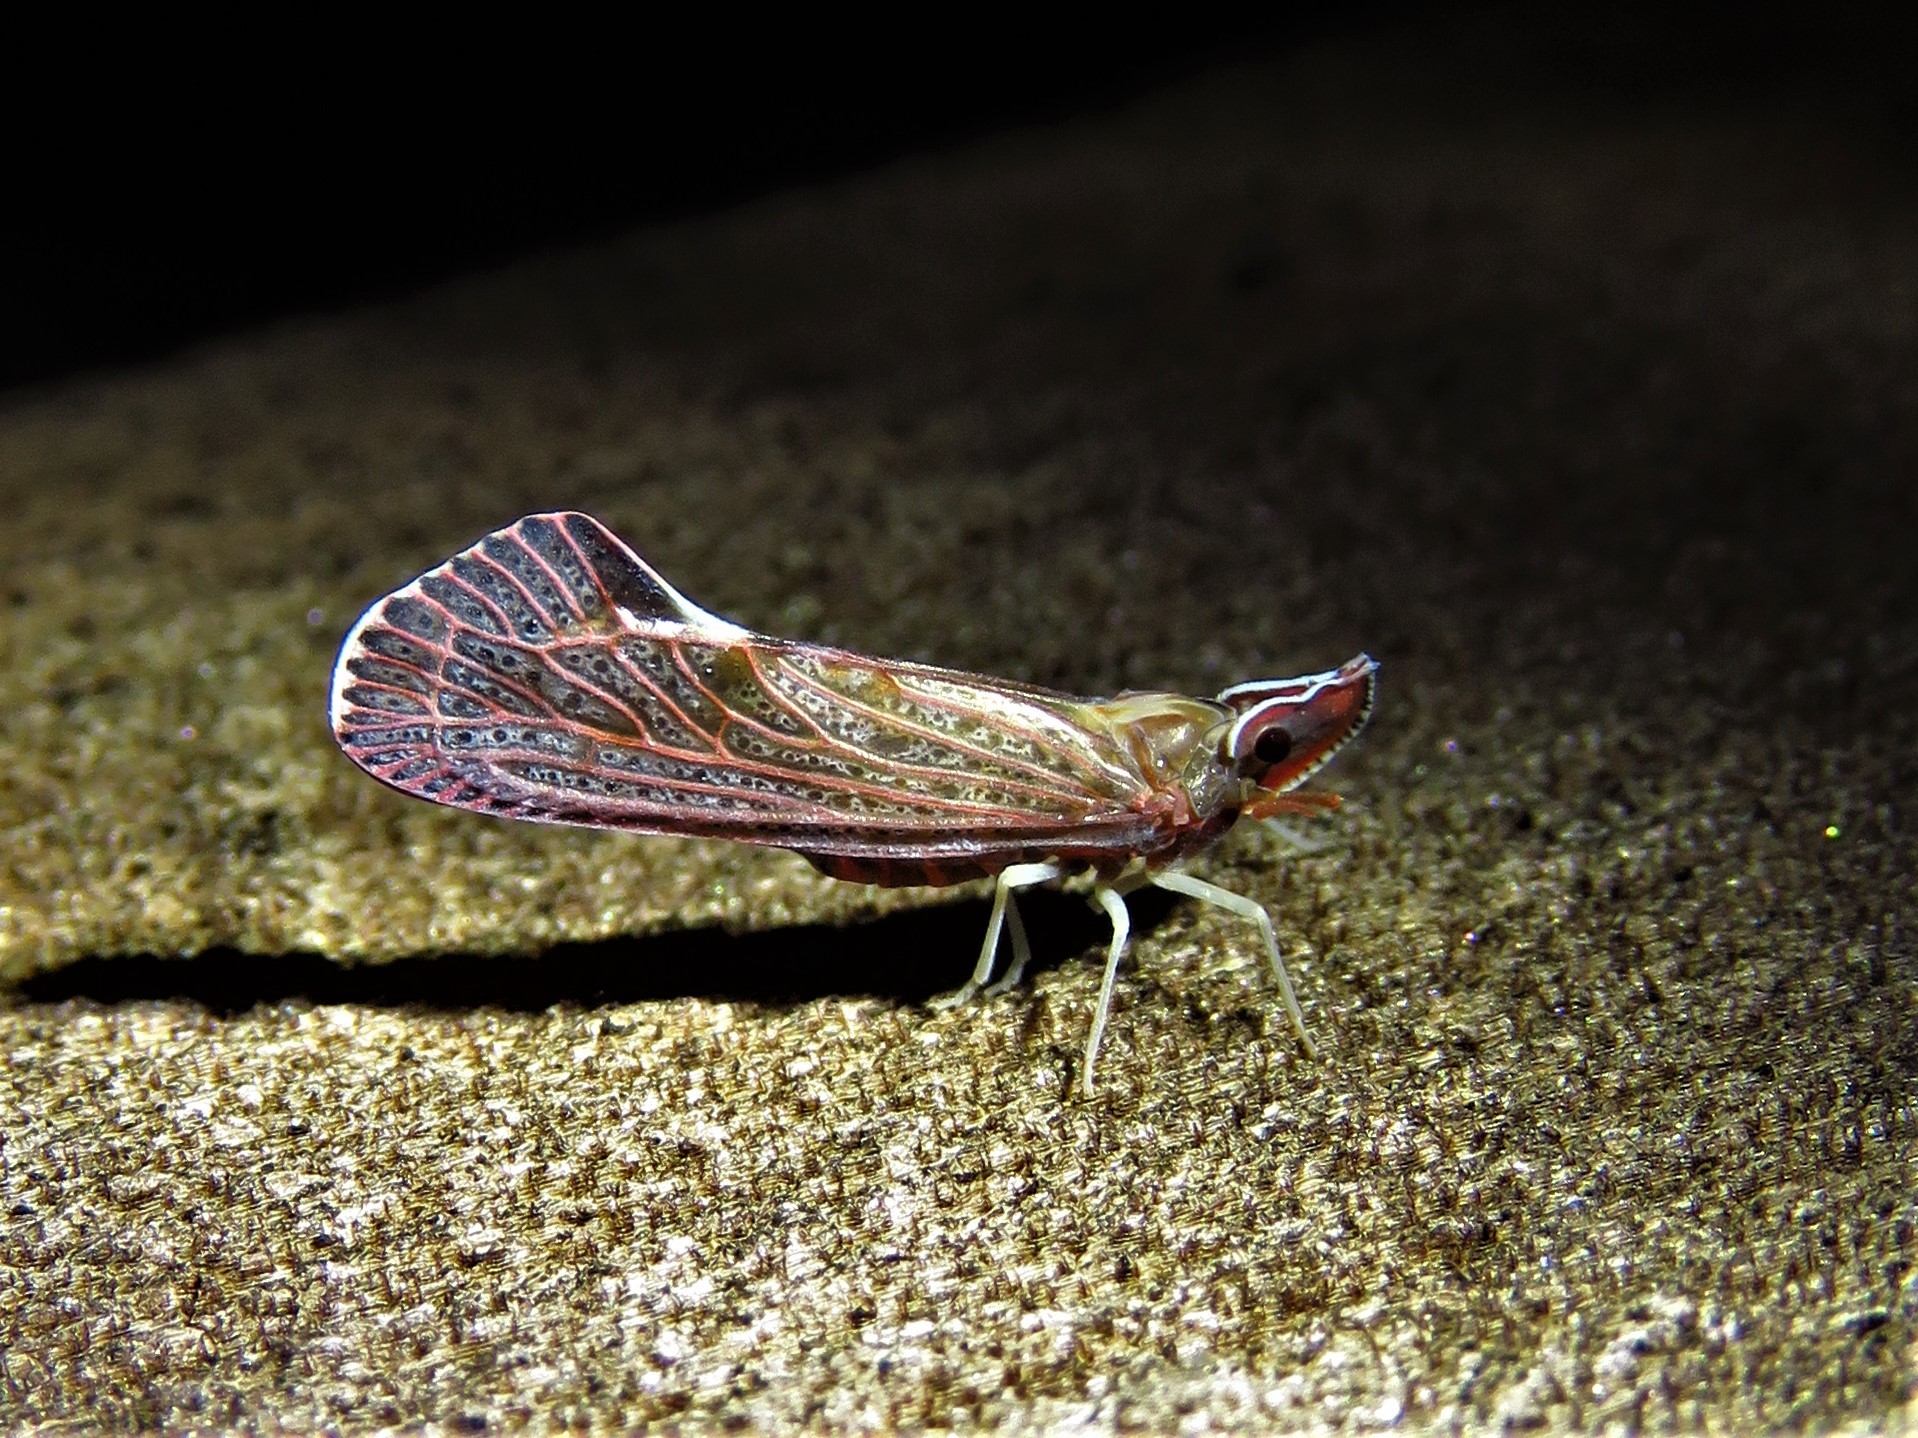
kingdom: Animalia
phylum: Arthropoda
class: Insecta
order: Hemiptera
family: Derbidae
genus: Apache
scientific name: Apache degeeri
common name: Red-fanned planthopper
